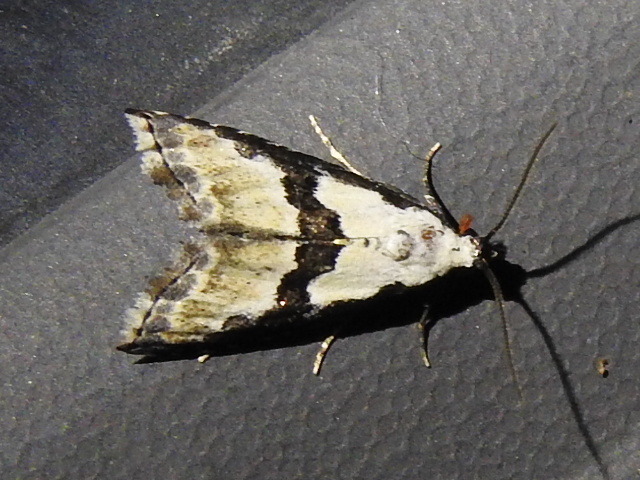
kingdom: Animalia
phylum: Arthropoda
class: Insecta
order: Lepidoptera
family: Noctuidae
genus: Nigetia
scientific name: Nigetia formosalis
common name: Thin-winged owlet
